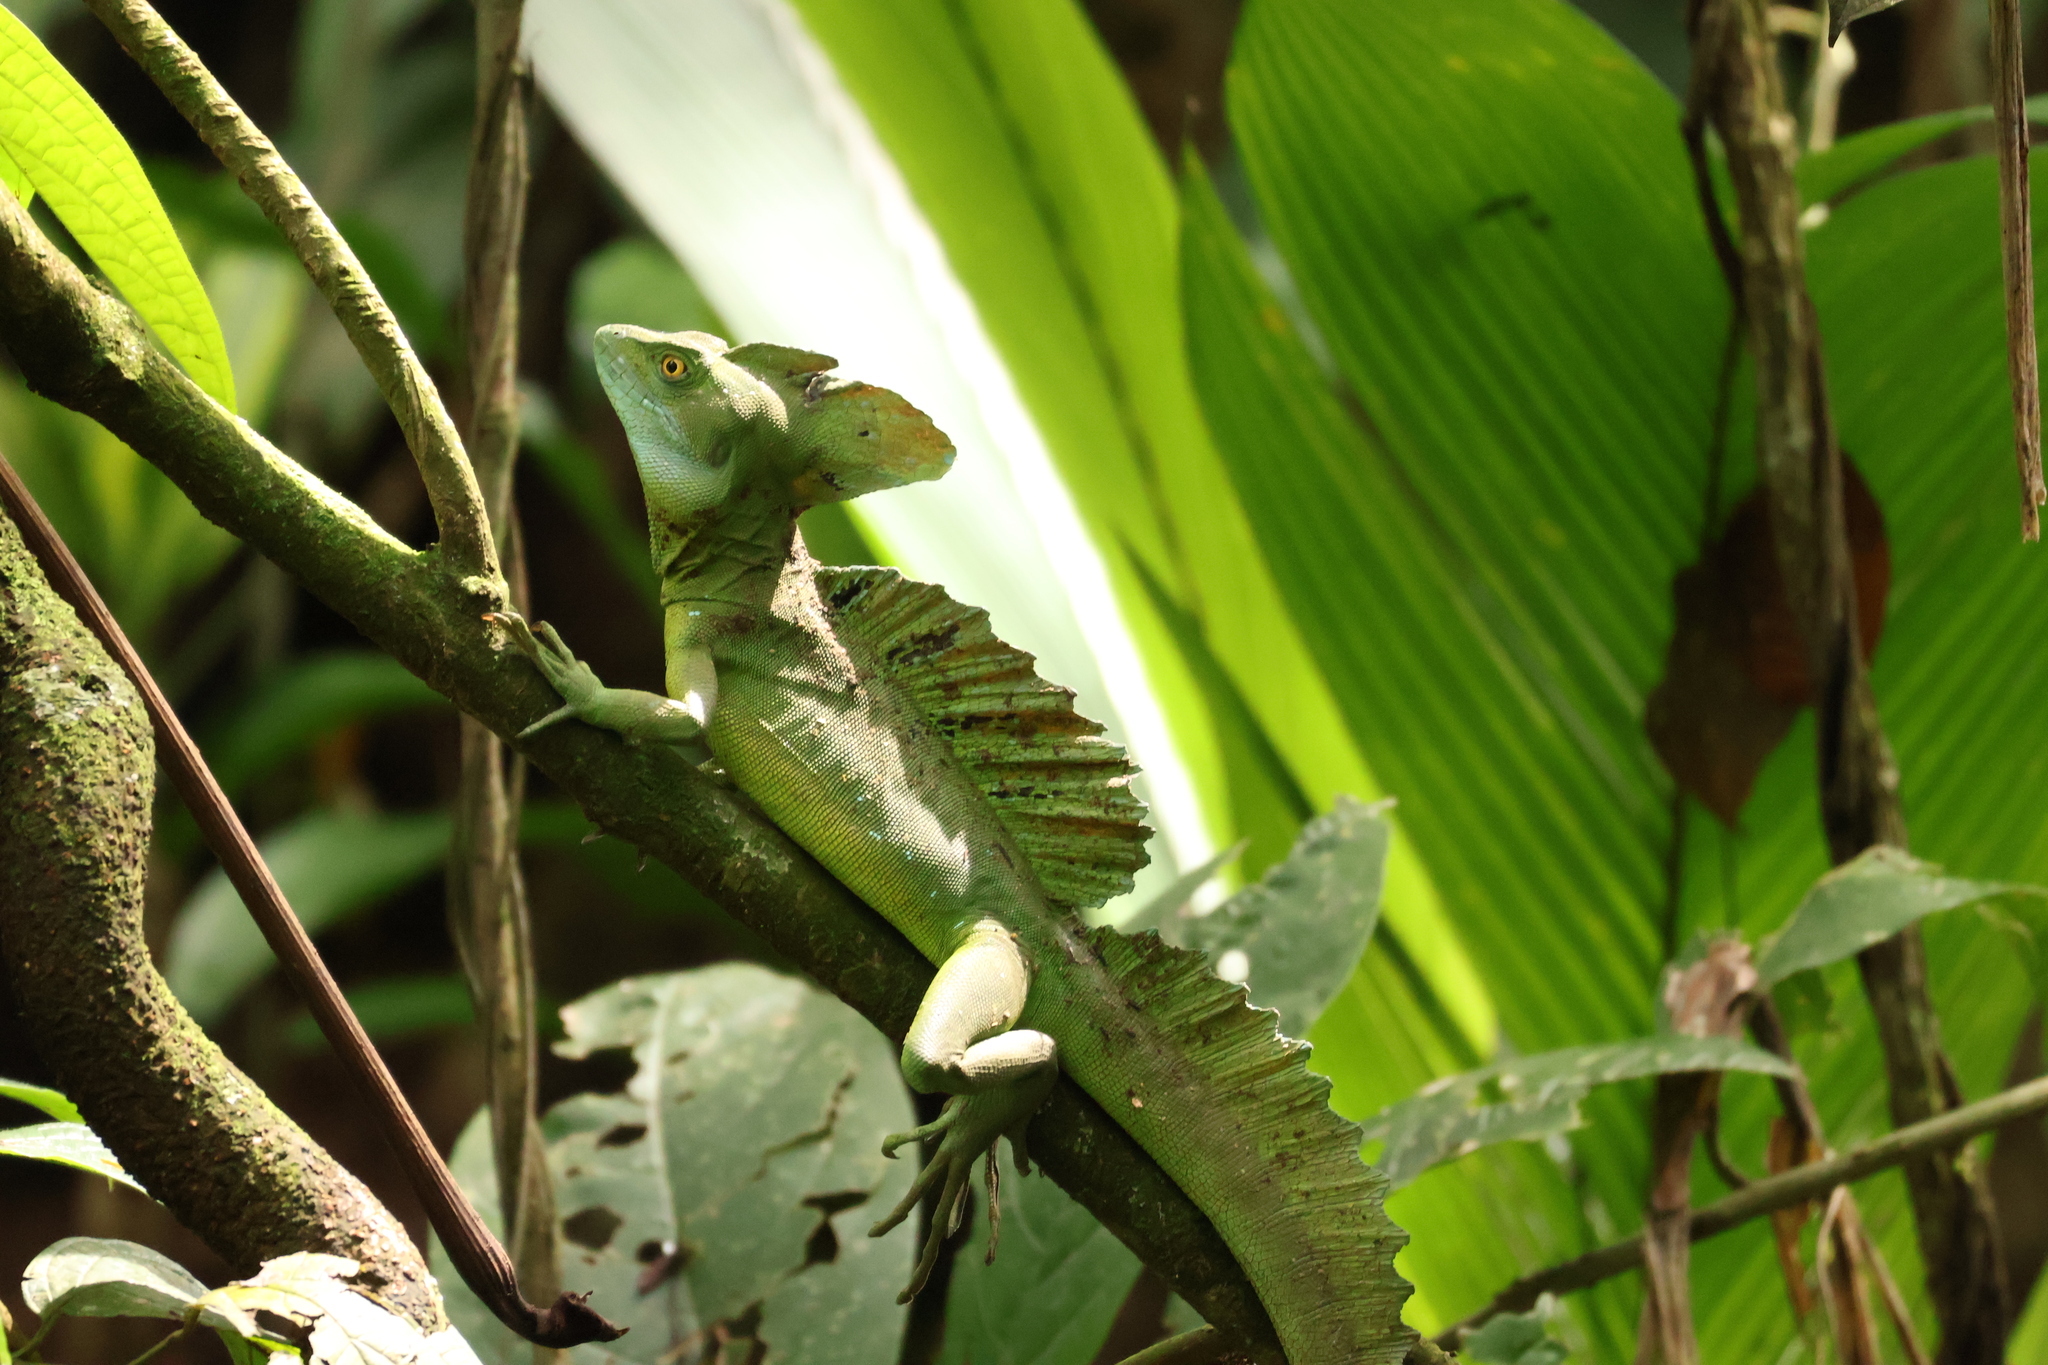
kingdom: Animalia
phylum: Chordata
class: Squamata
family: Corytophanidae
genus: Basiliscus
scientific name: Basiliscus plumifrons
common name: Green basilisk
